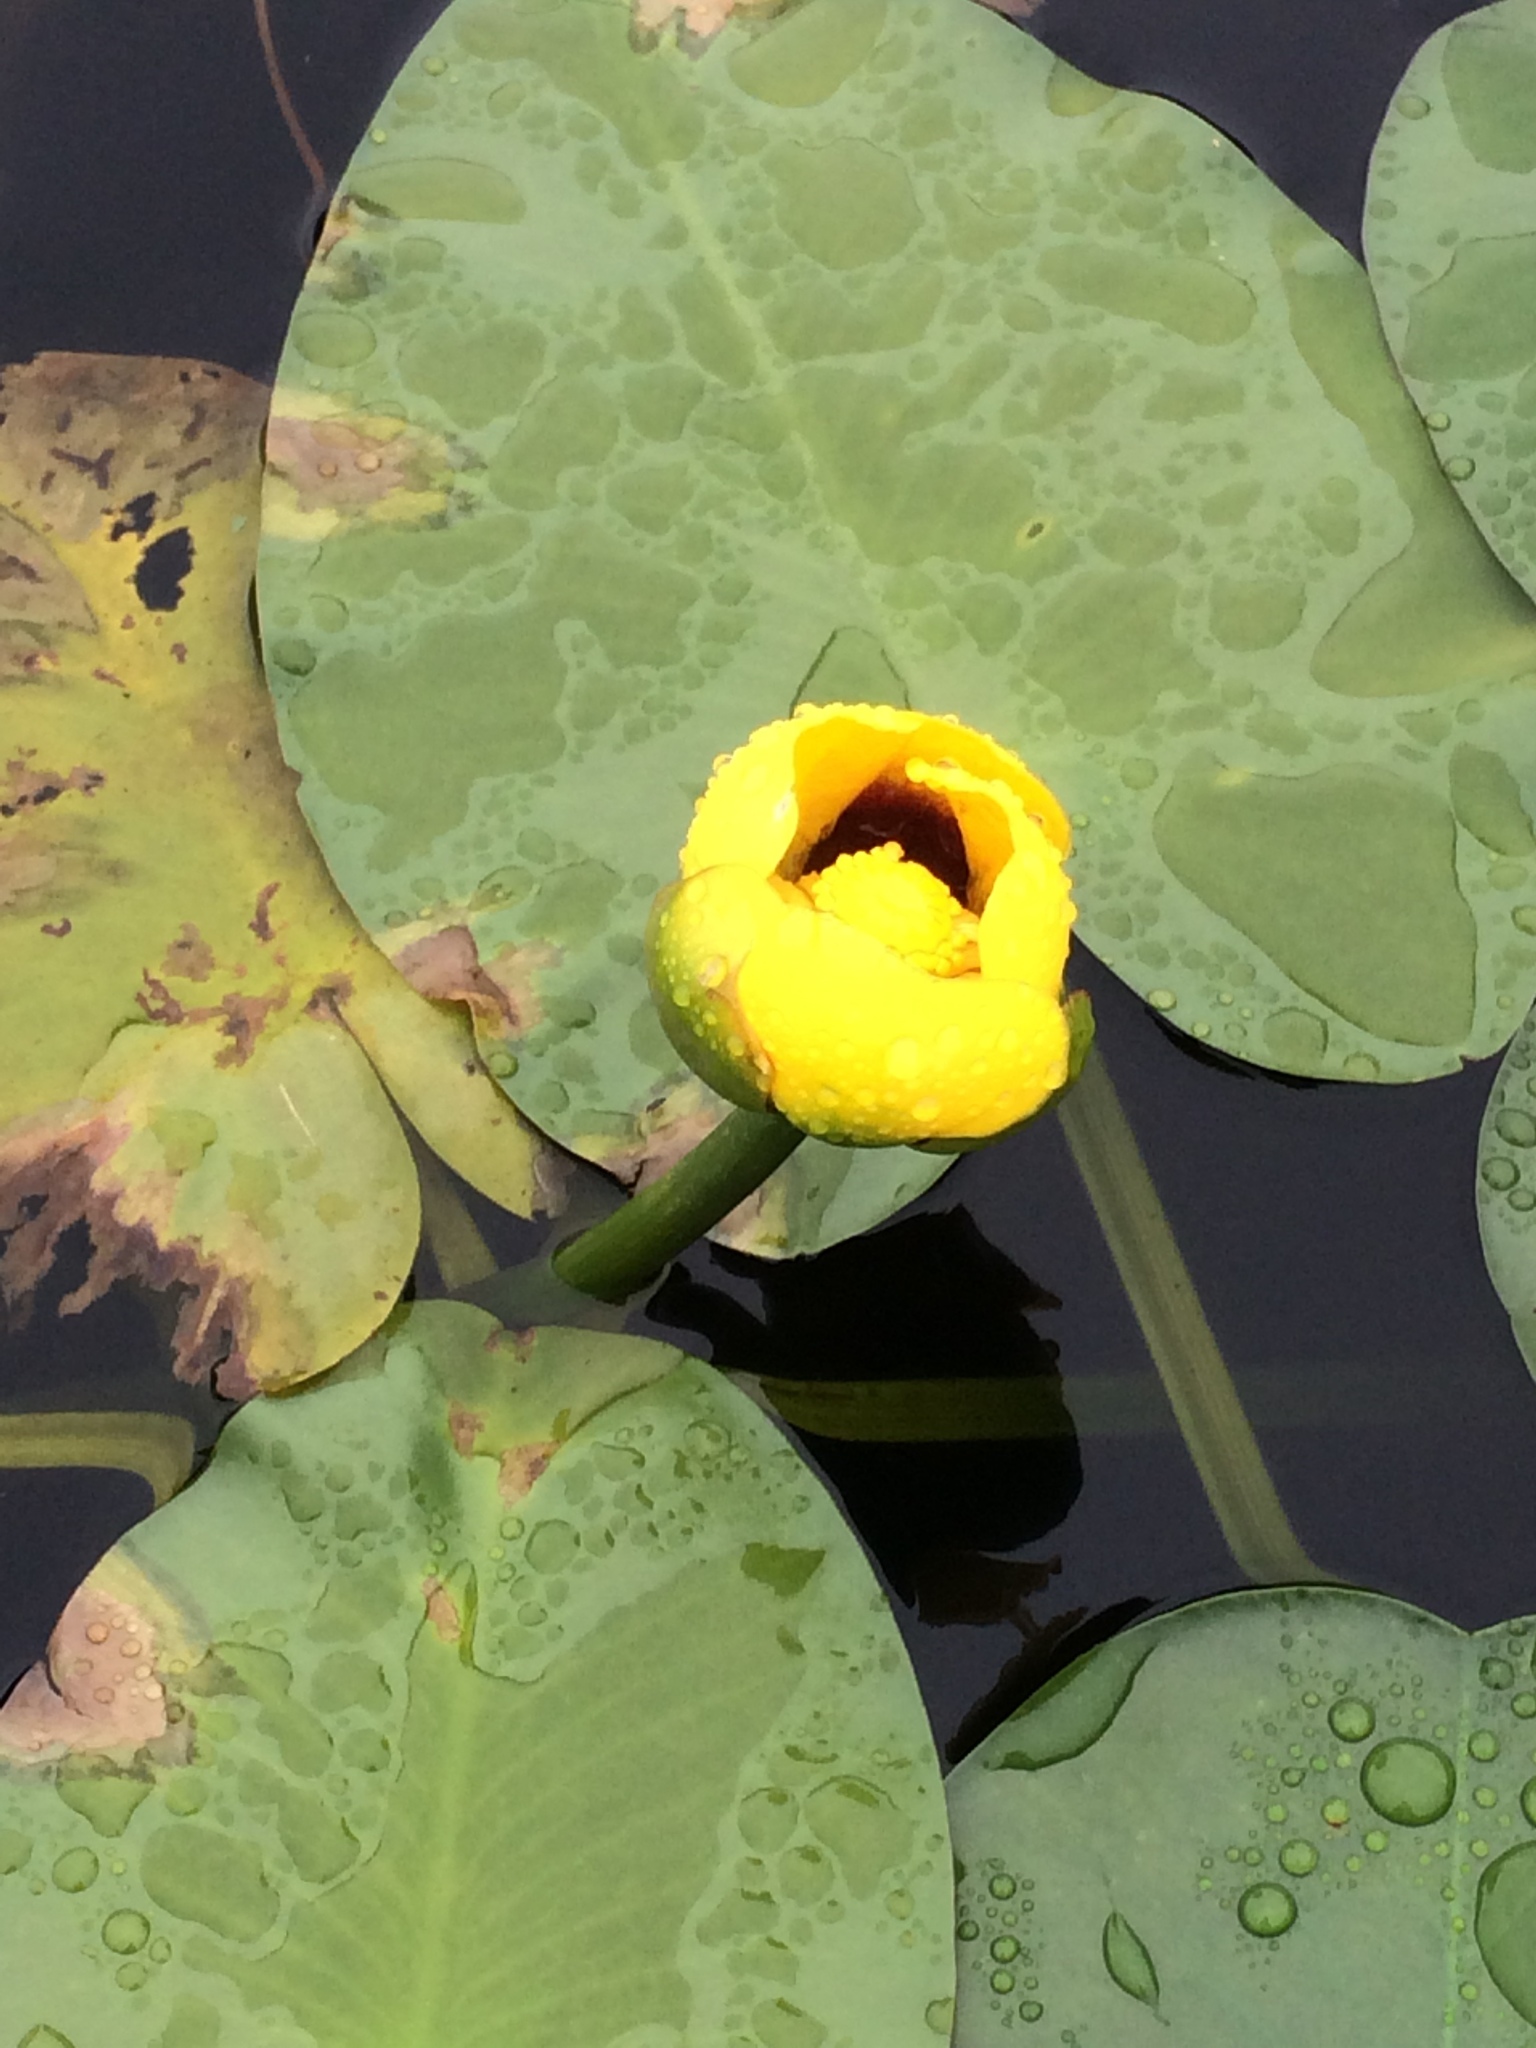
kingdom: Plantae
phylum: Tracheophyta
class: Magnoliopsida
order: Nymphaeales
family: Nymphaeaceae
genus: Nuphar
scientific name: Nuphar variegata
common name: Beaver-root
